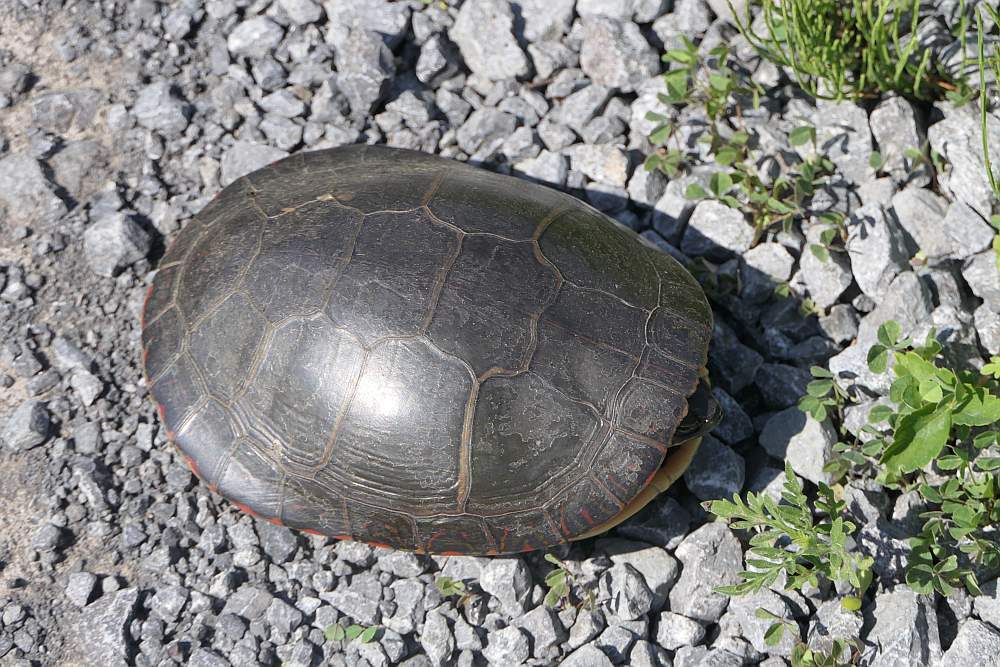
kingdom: Animalia
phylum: Chordata
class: Testudines
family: Emydidae
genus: Chrysemys
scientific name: Chrysemys picta
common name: Painted turtle
